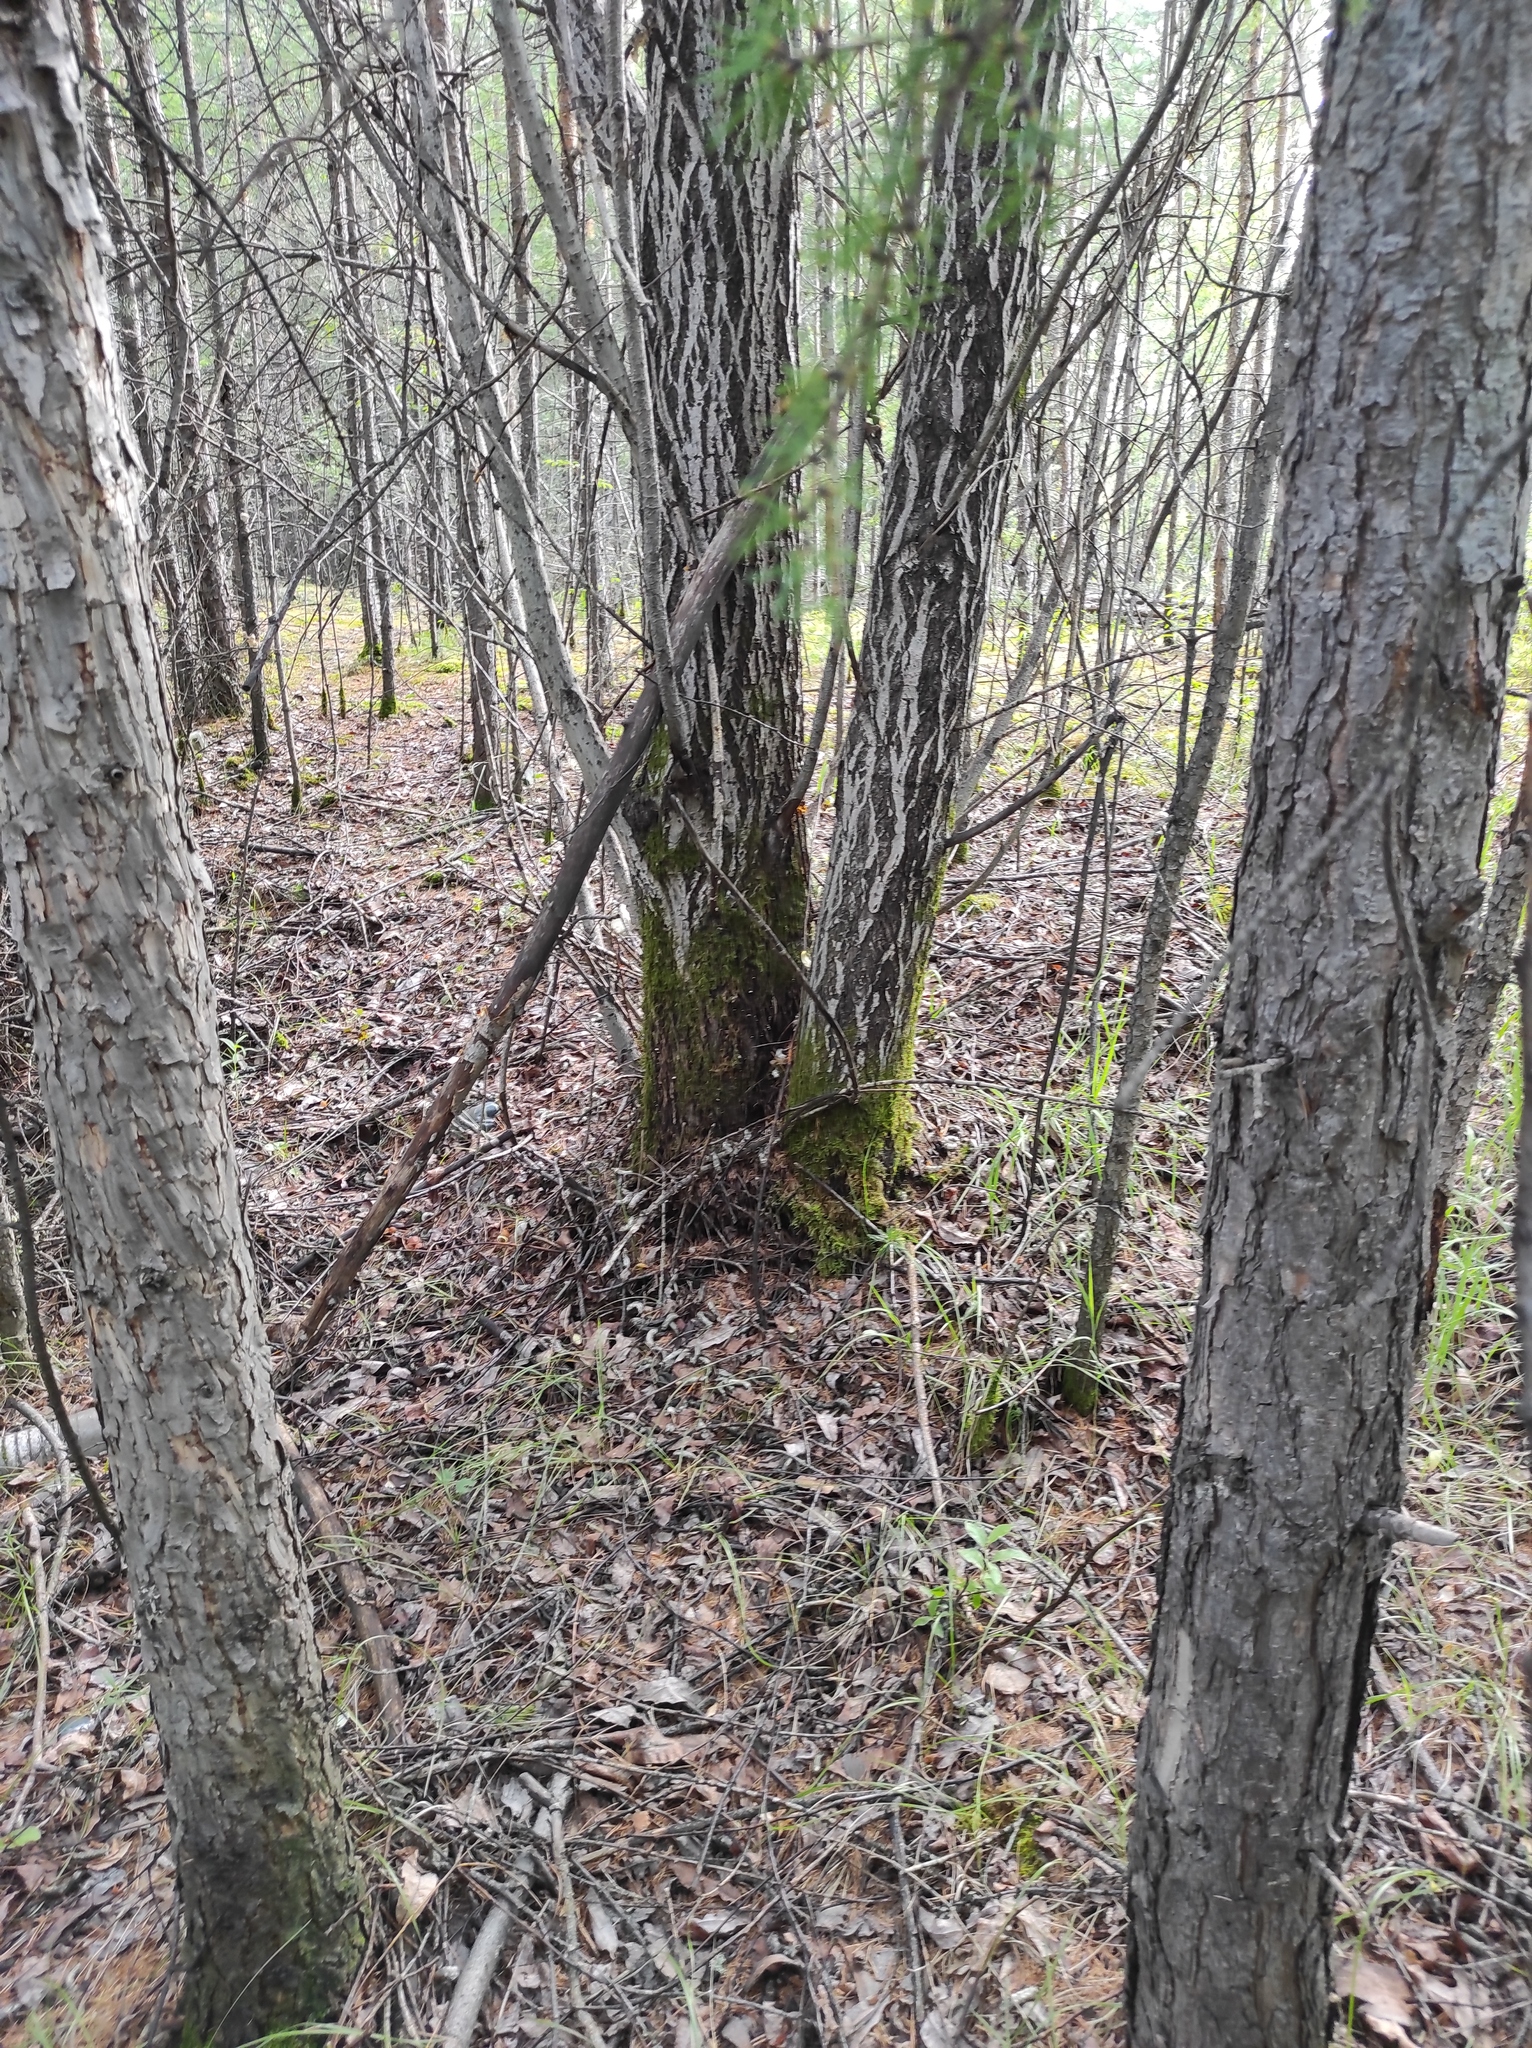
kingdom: Plantae
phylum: Tracheophyta
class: Pinopsida
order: Pinales
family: Pinaceae
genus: Larix
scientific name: Larix gmelinii
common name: Dahurian larch
